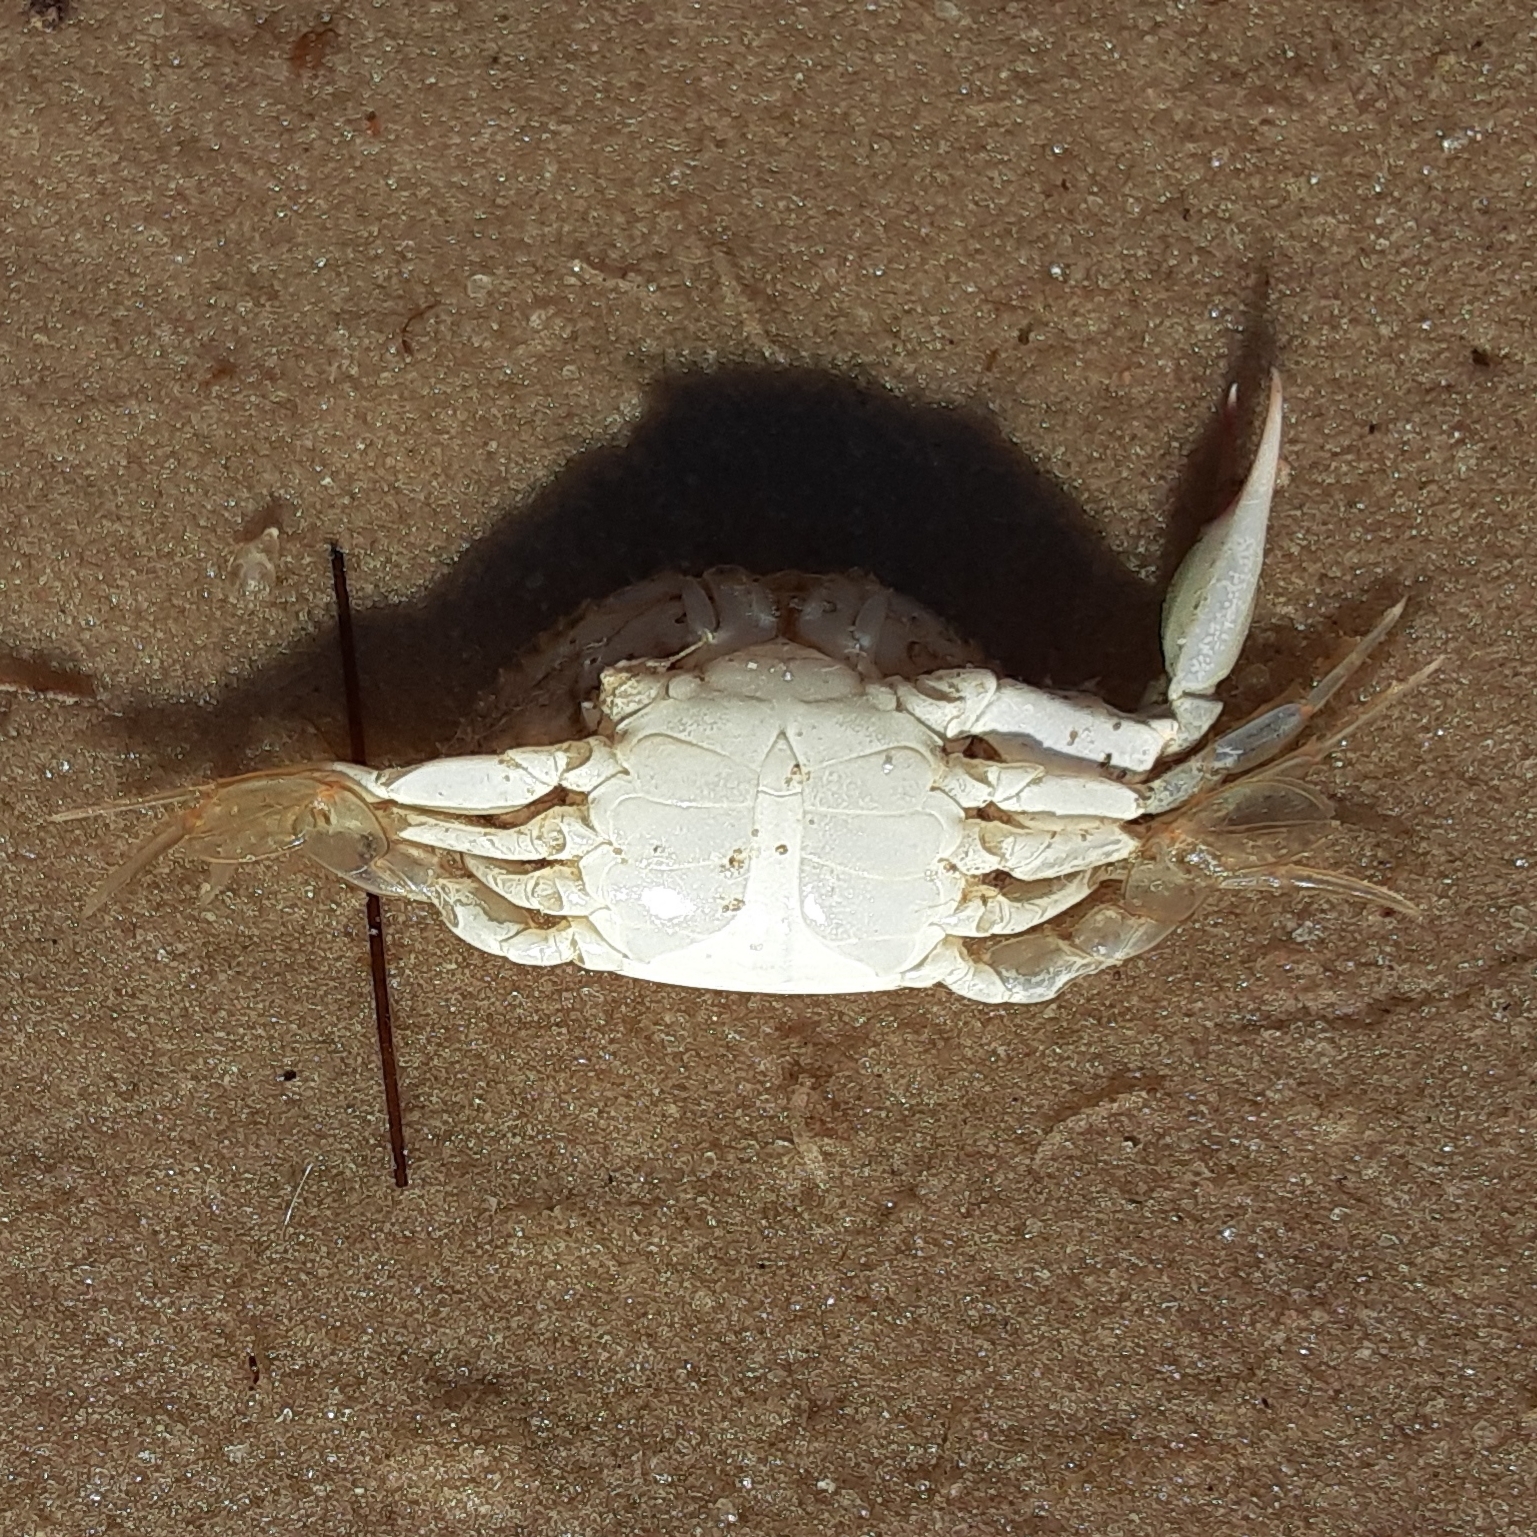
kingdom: Animalia
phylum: Arthropoda
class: Malacostraca
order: Decapoda
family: Portunidae
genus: Callinectes
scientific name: Callinectes sapidus
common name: Blue crab
